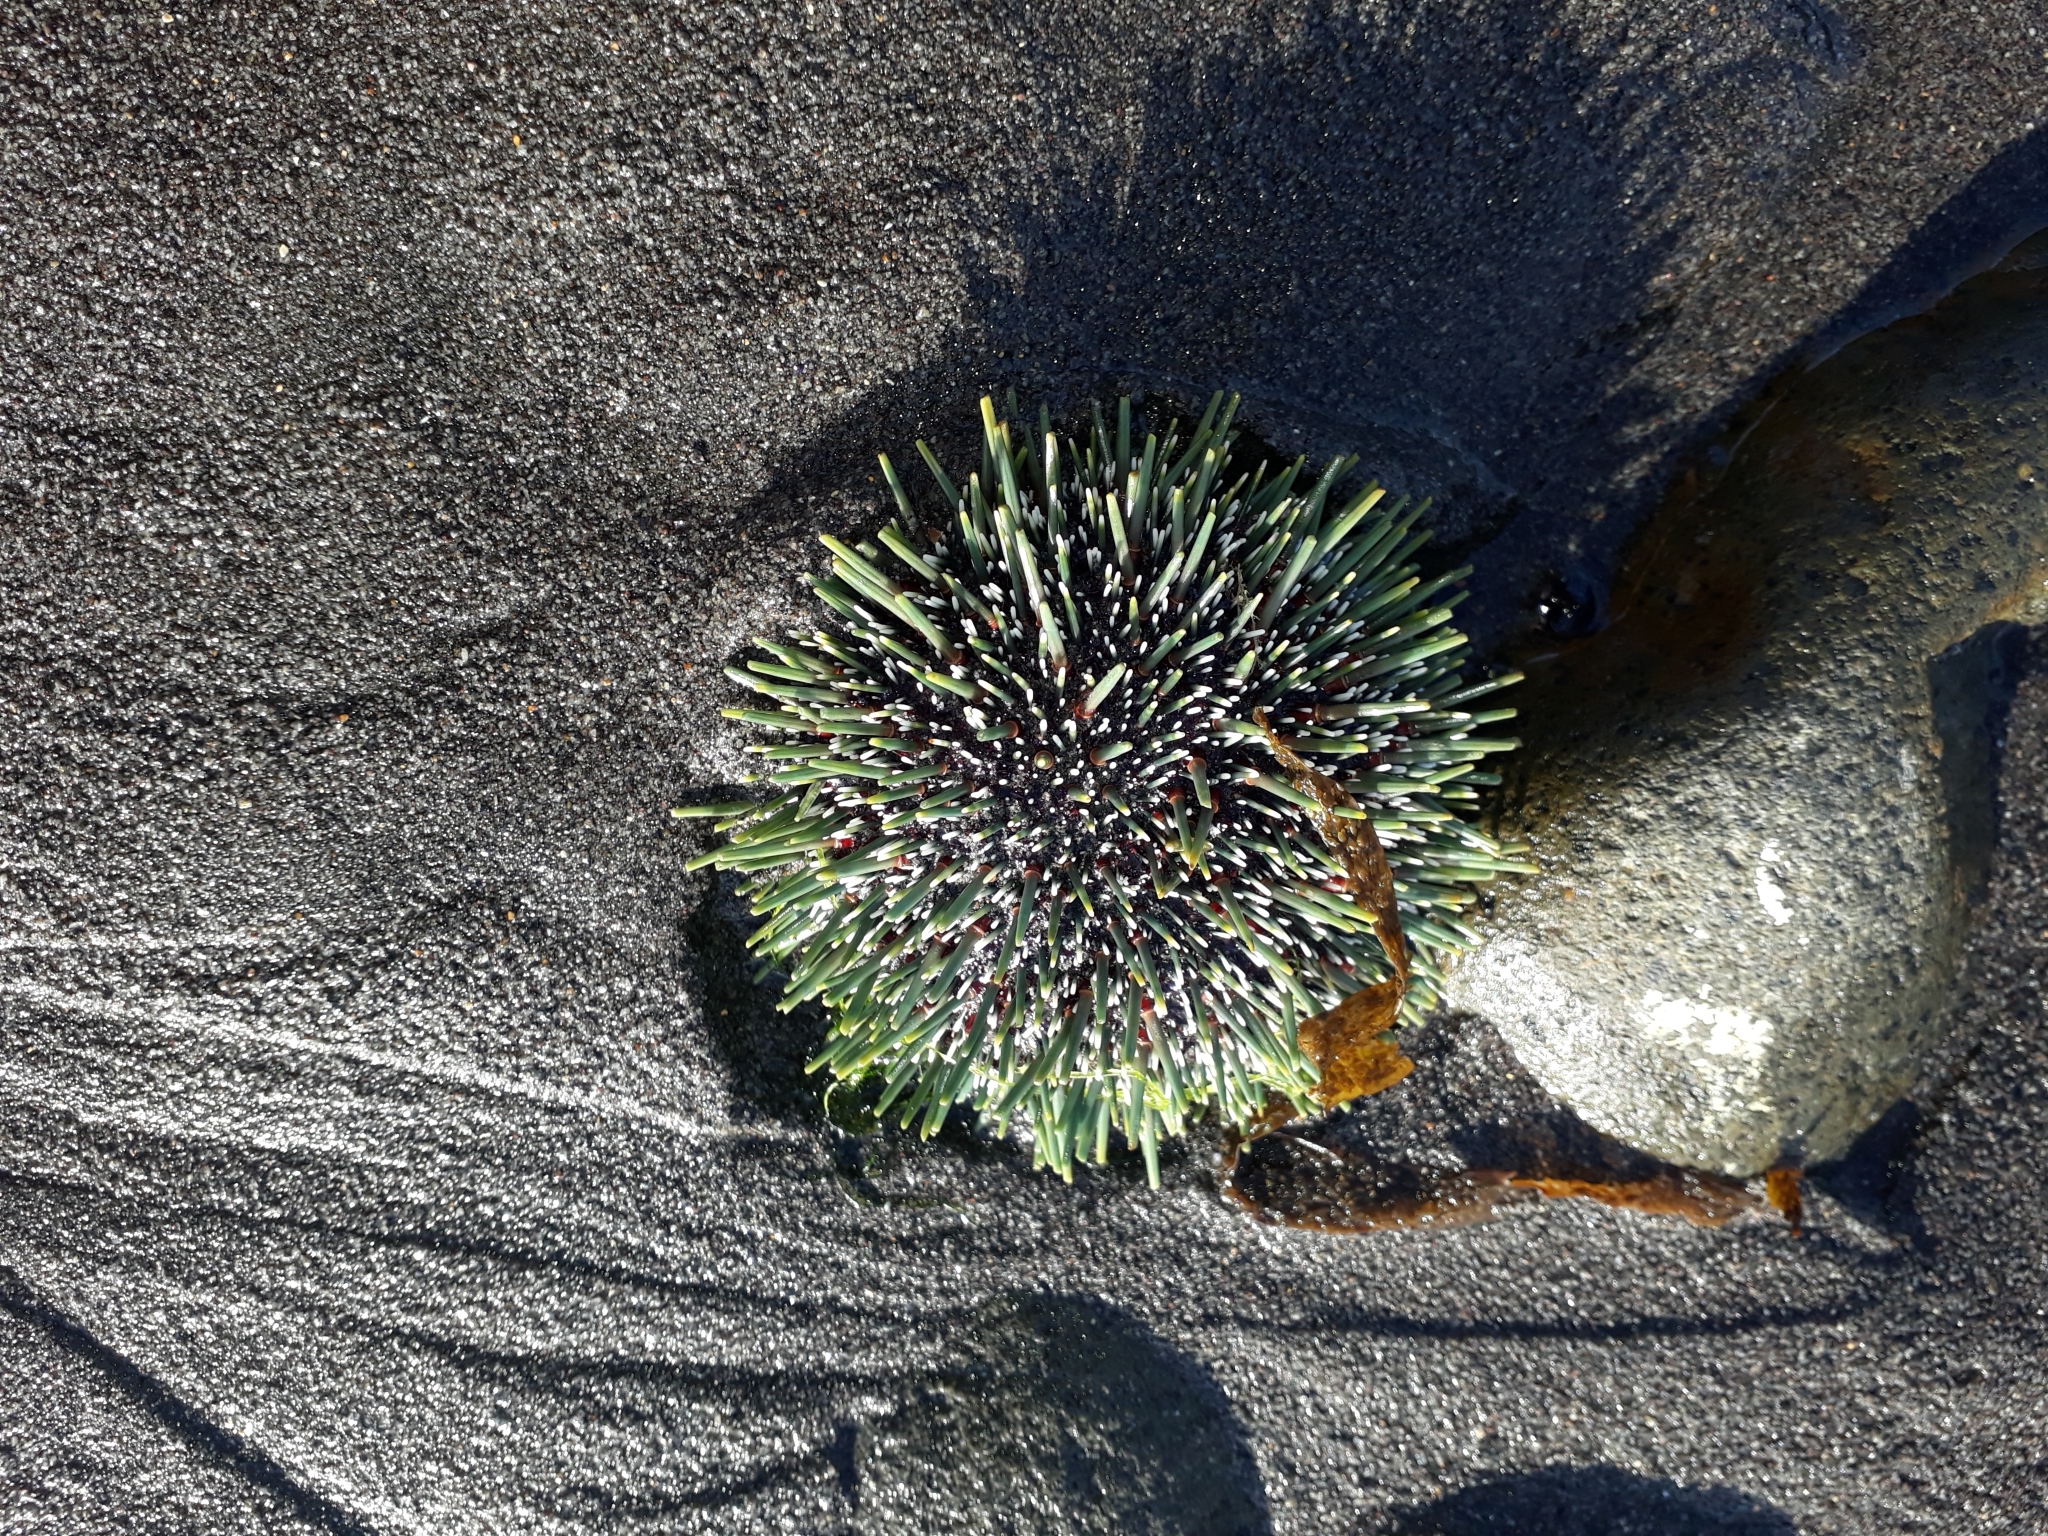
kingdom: Animalia
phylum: Echinodermata
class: Echinoidea
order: Camarodonta
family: Echinometridae
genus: Evechinus
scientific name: Evechinus chloroticus
